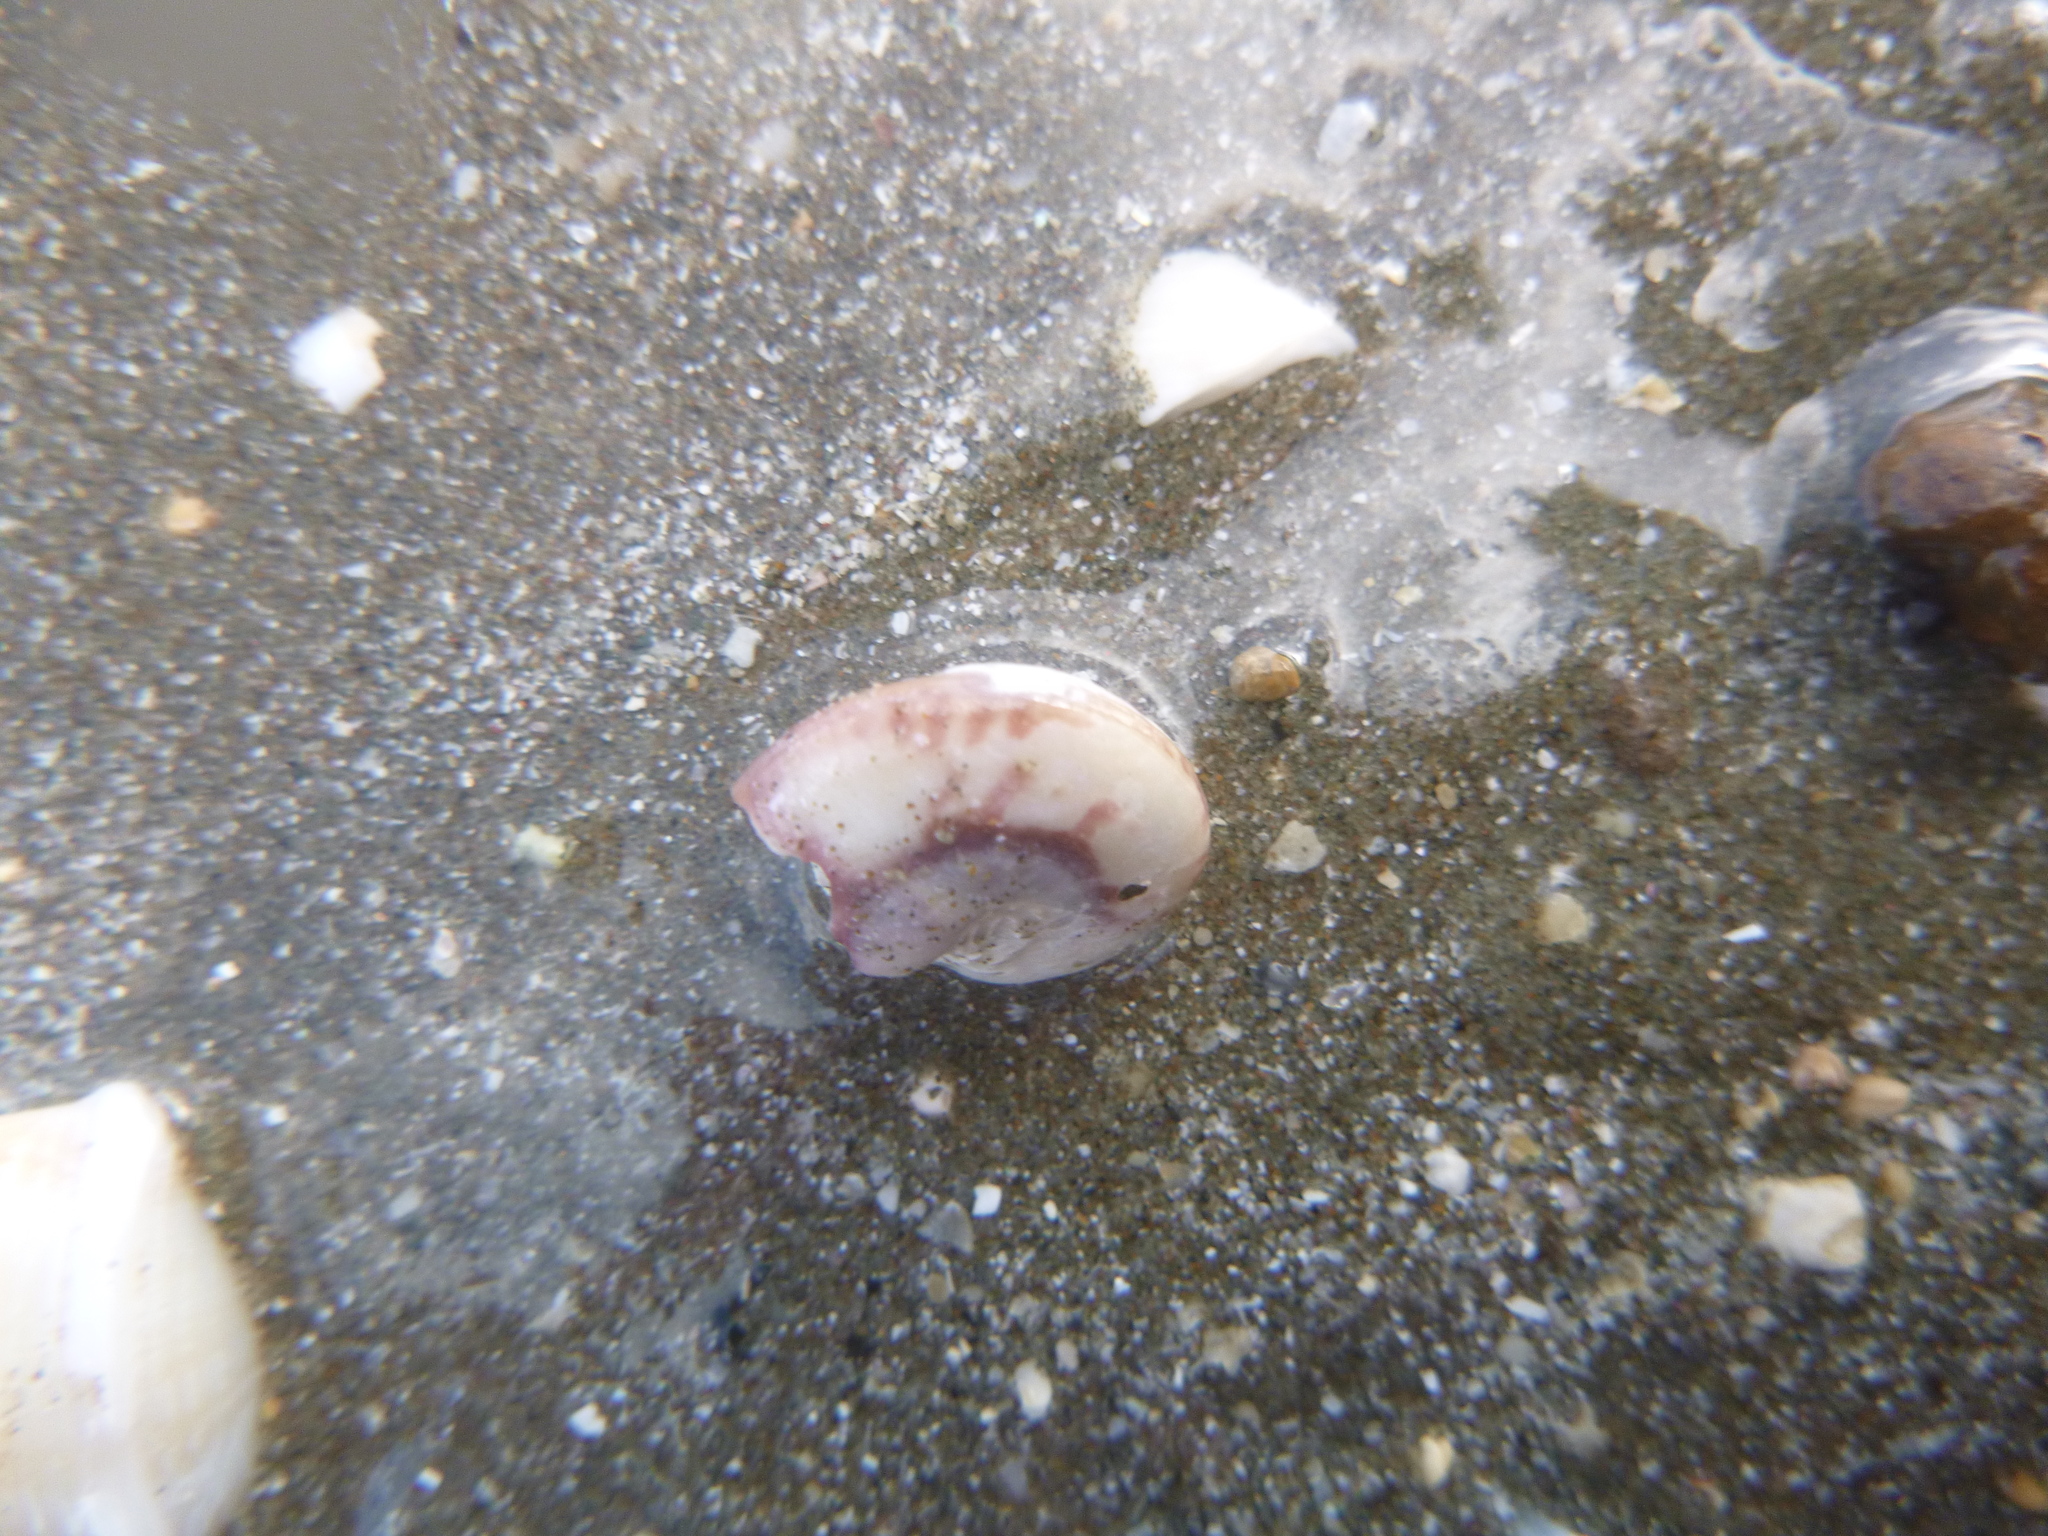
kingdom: Animalia
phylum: Mollusca
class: Gastropoda
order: Trochida
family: Trochidae
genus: Zethalia
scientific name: Zethalia zelandica
